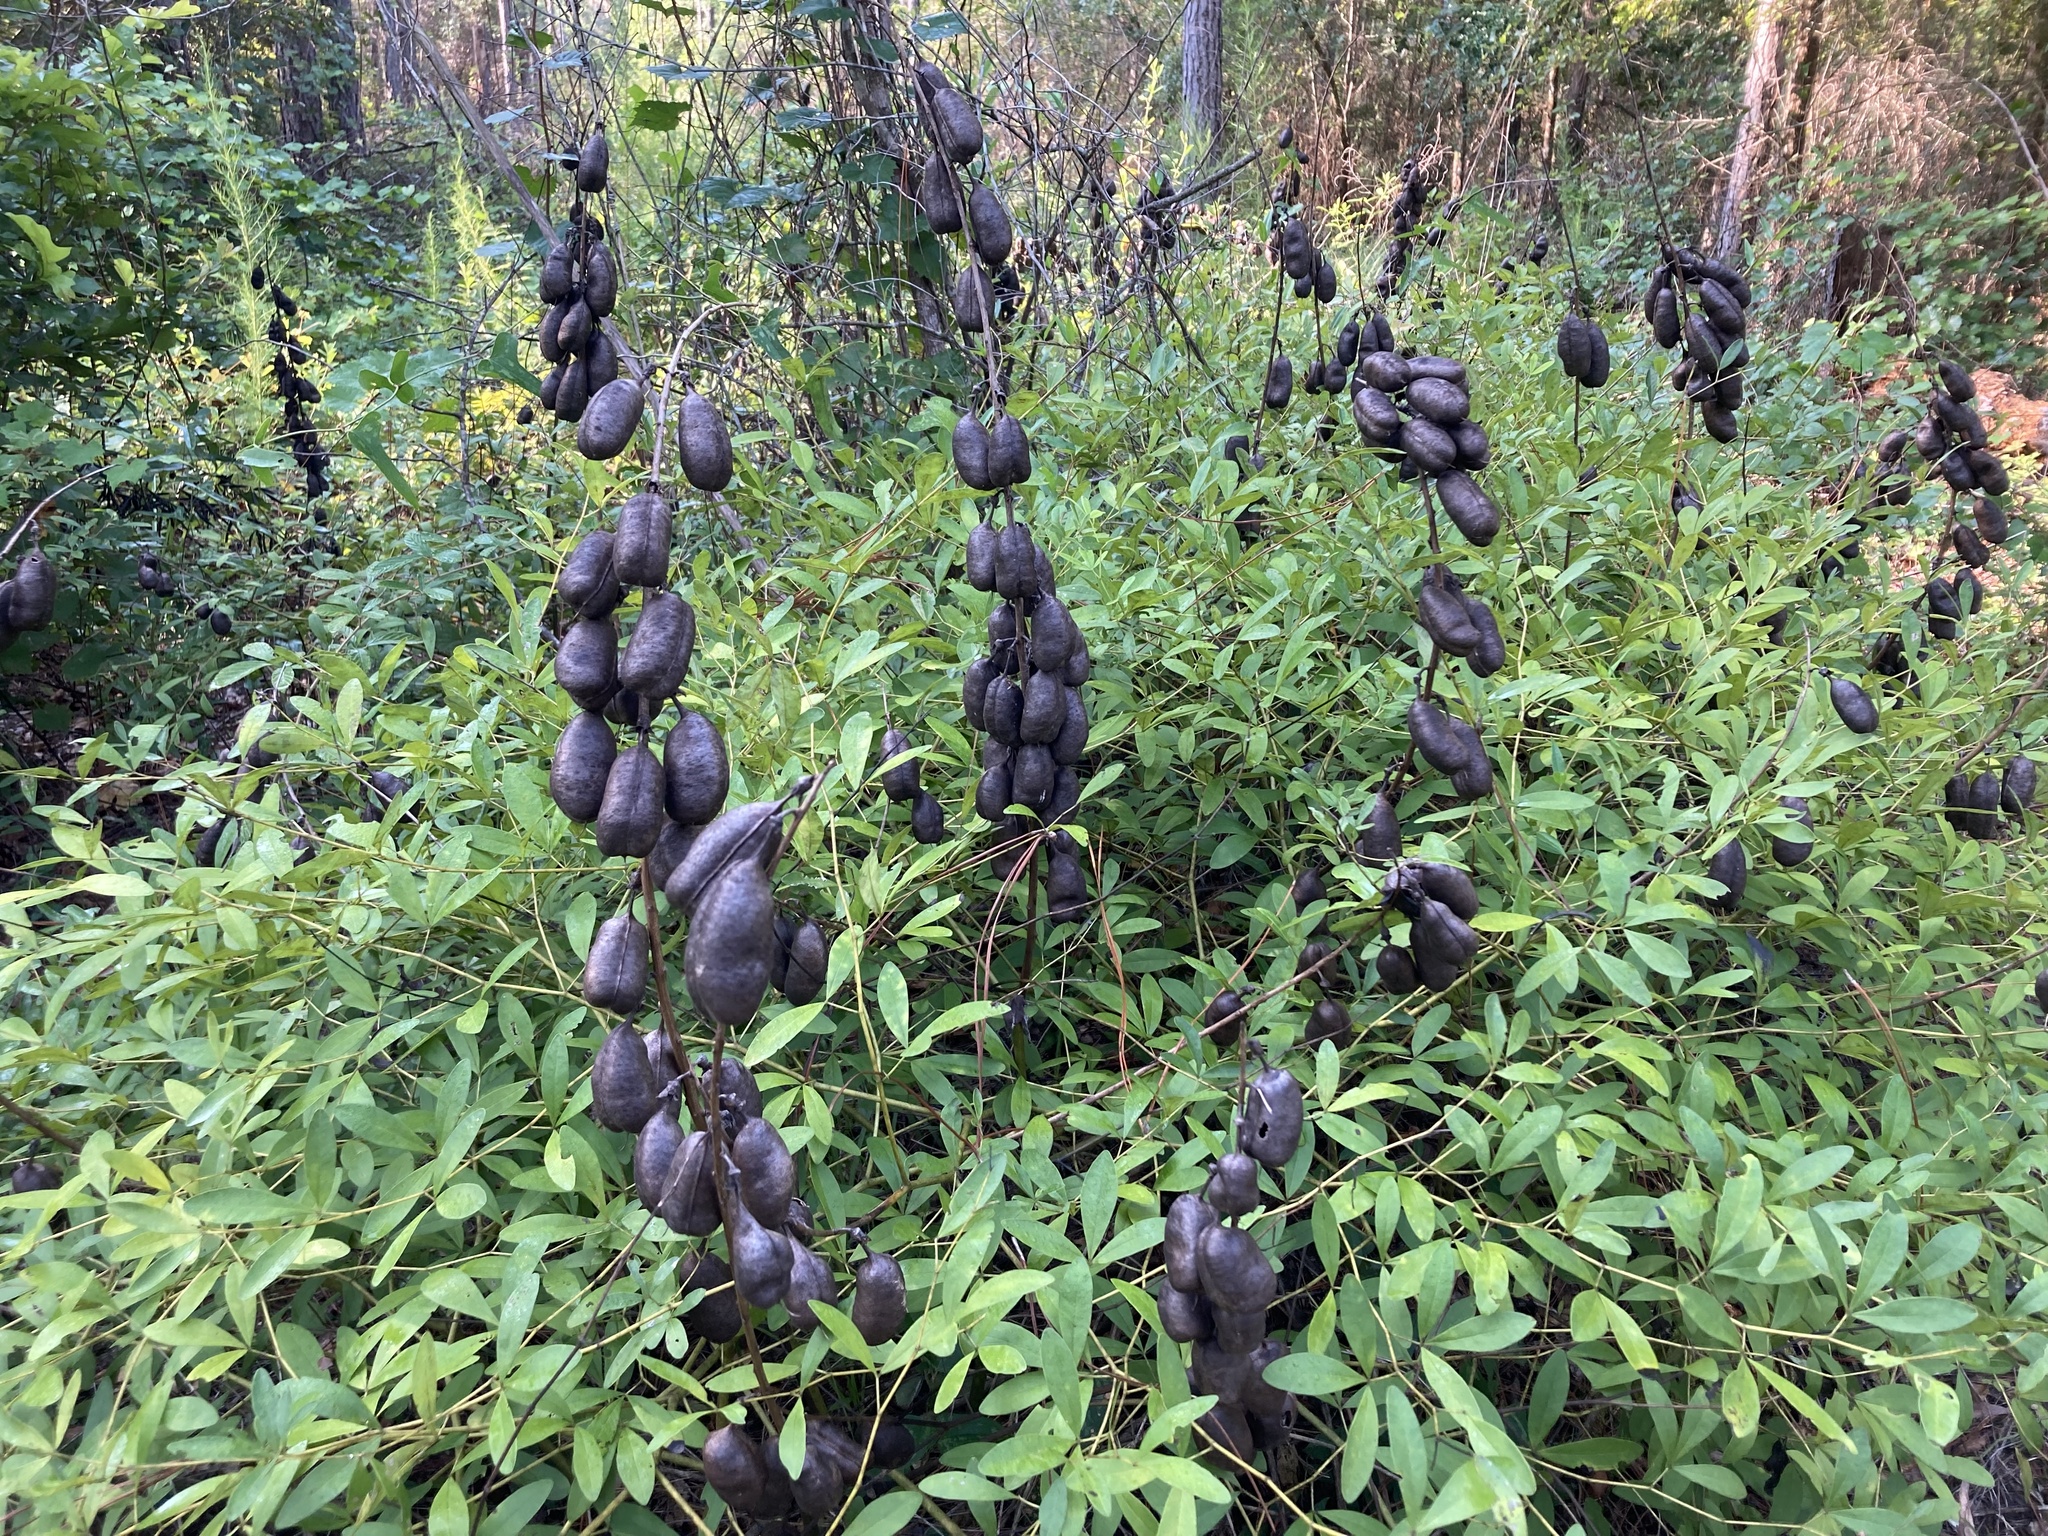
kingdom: Plantae
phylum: Tracheophyta
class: Magnoliopsida
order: Fabales
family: Fabaceae
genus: Baptisia
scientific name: Baptisia alba
